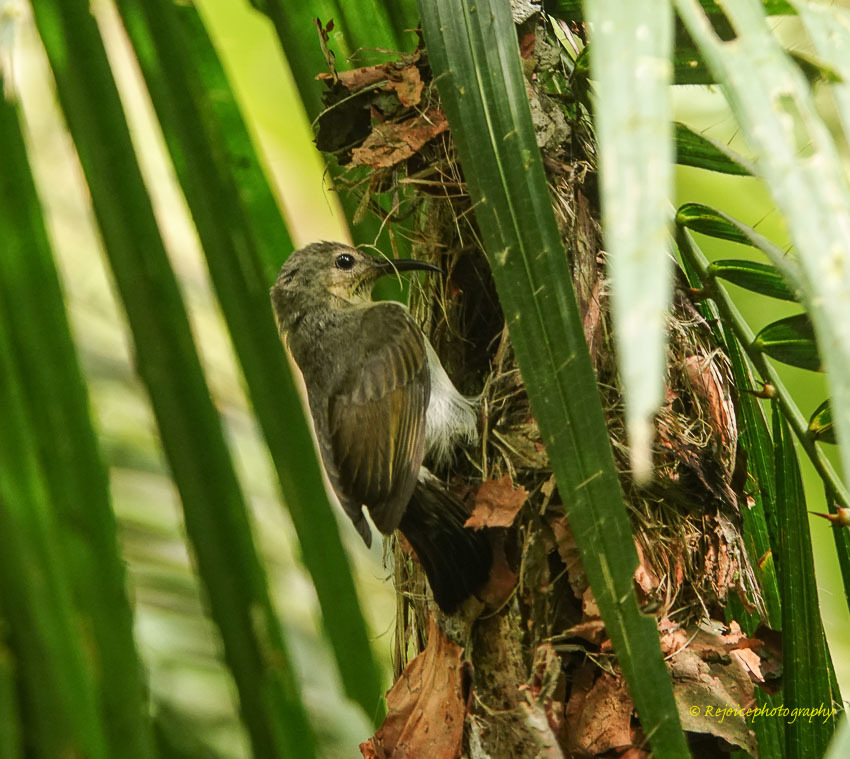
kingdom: Animalia
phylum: Chordata
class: Aves
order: Passeriformes
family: Nectariniidae
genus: Leptocoma
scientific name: Leptocoma brasiliana
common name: Van hasselt's sunbird
